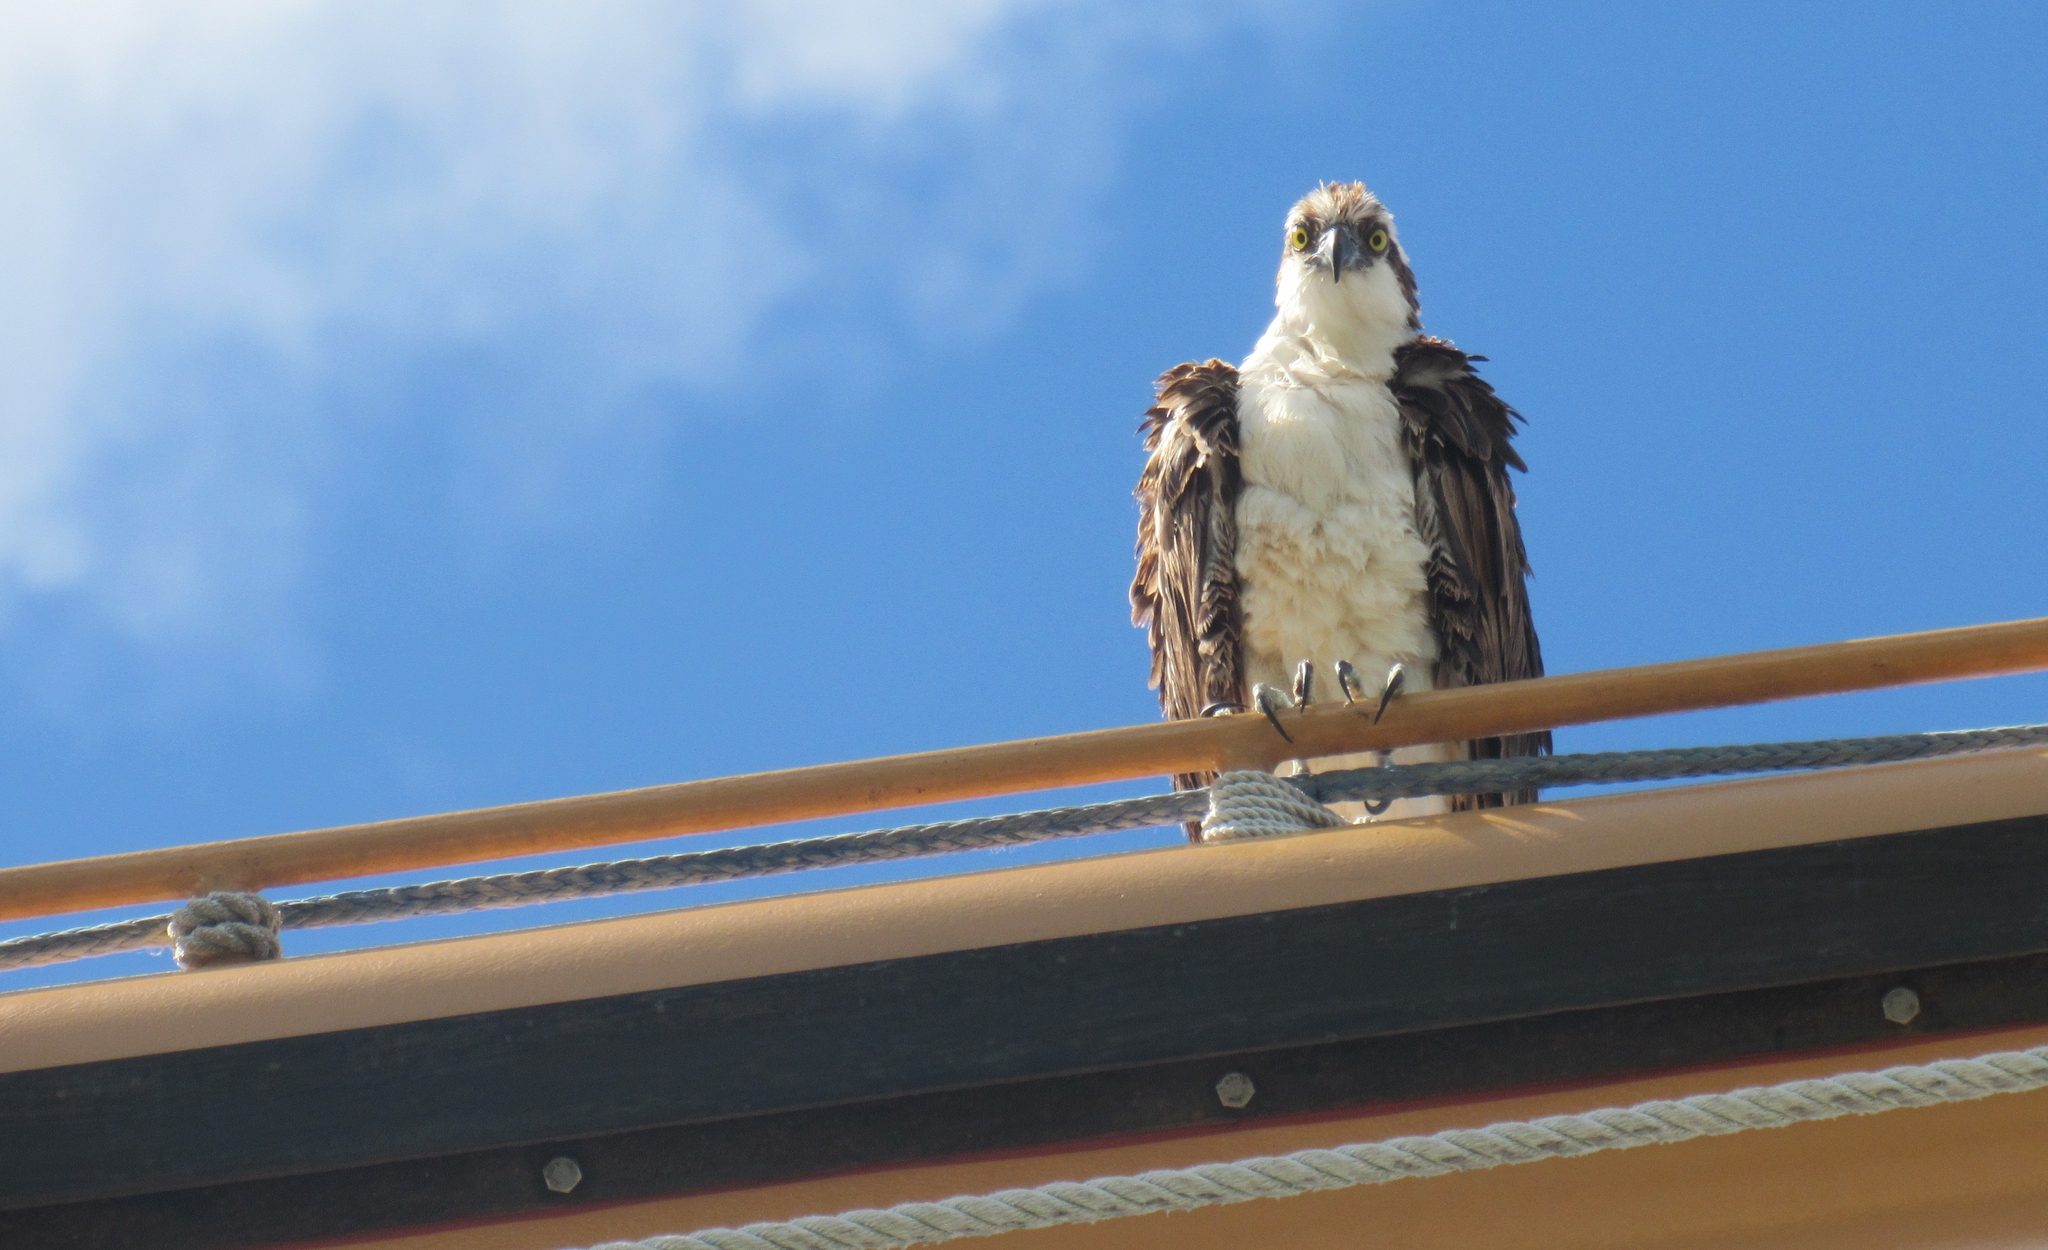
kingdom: Animalia
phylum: Chordata
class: Aves
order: Accipitriformes
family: Pandionidae
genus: Pandion
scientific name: Pandion haliaetus
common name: Osprey
